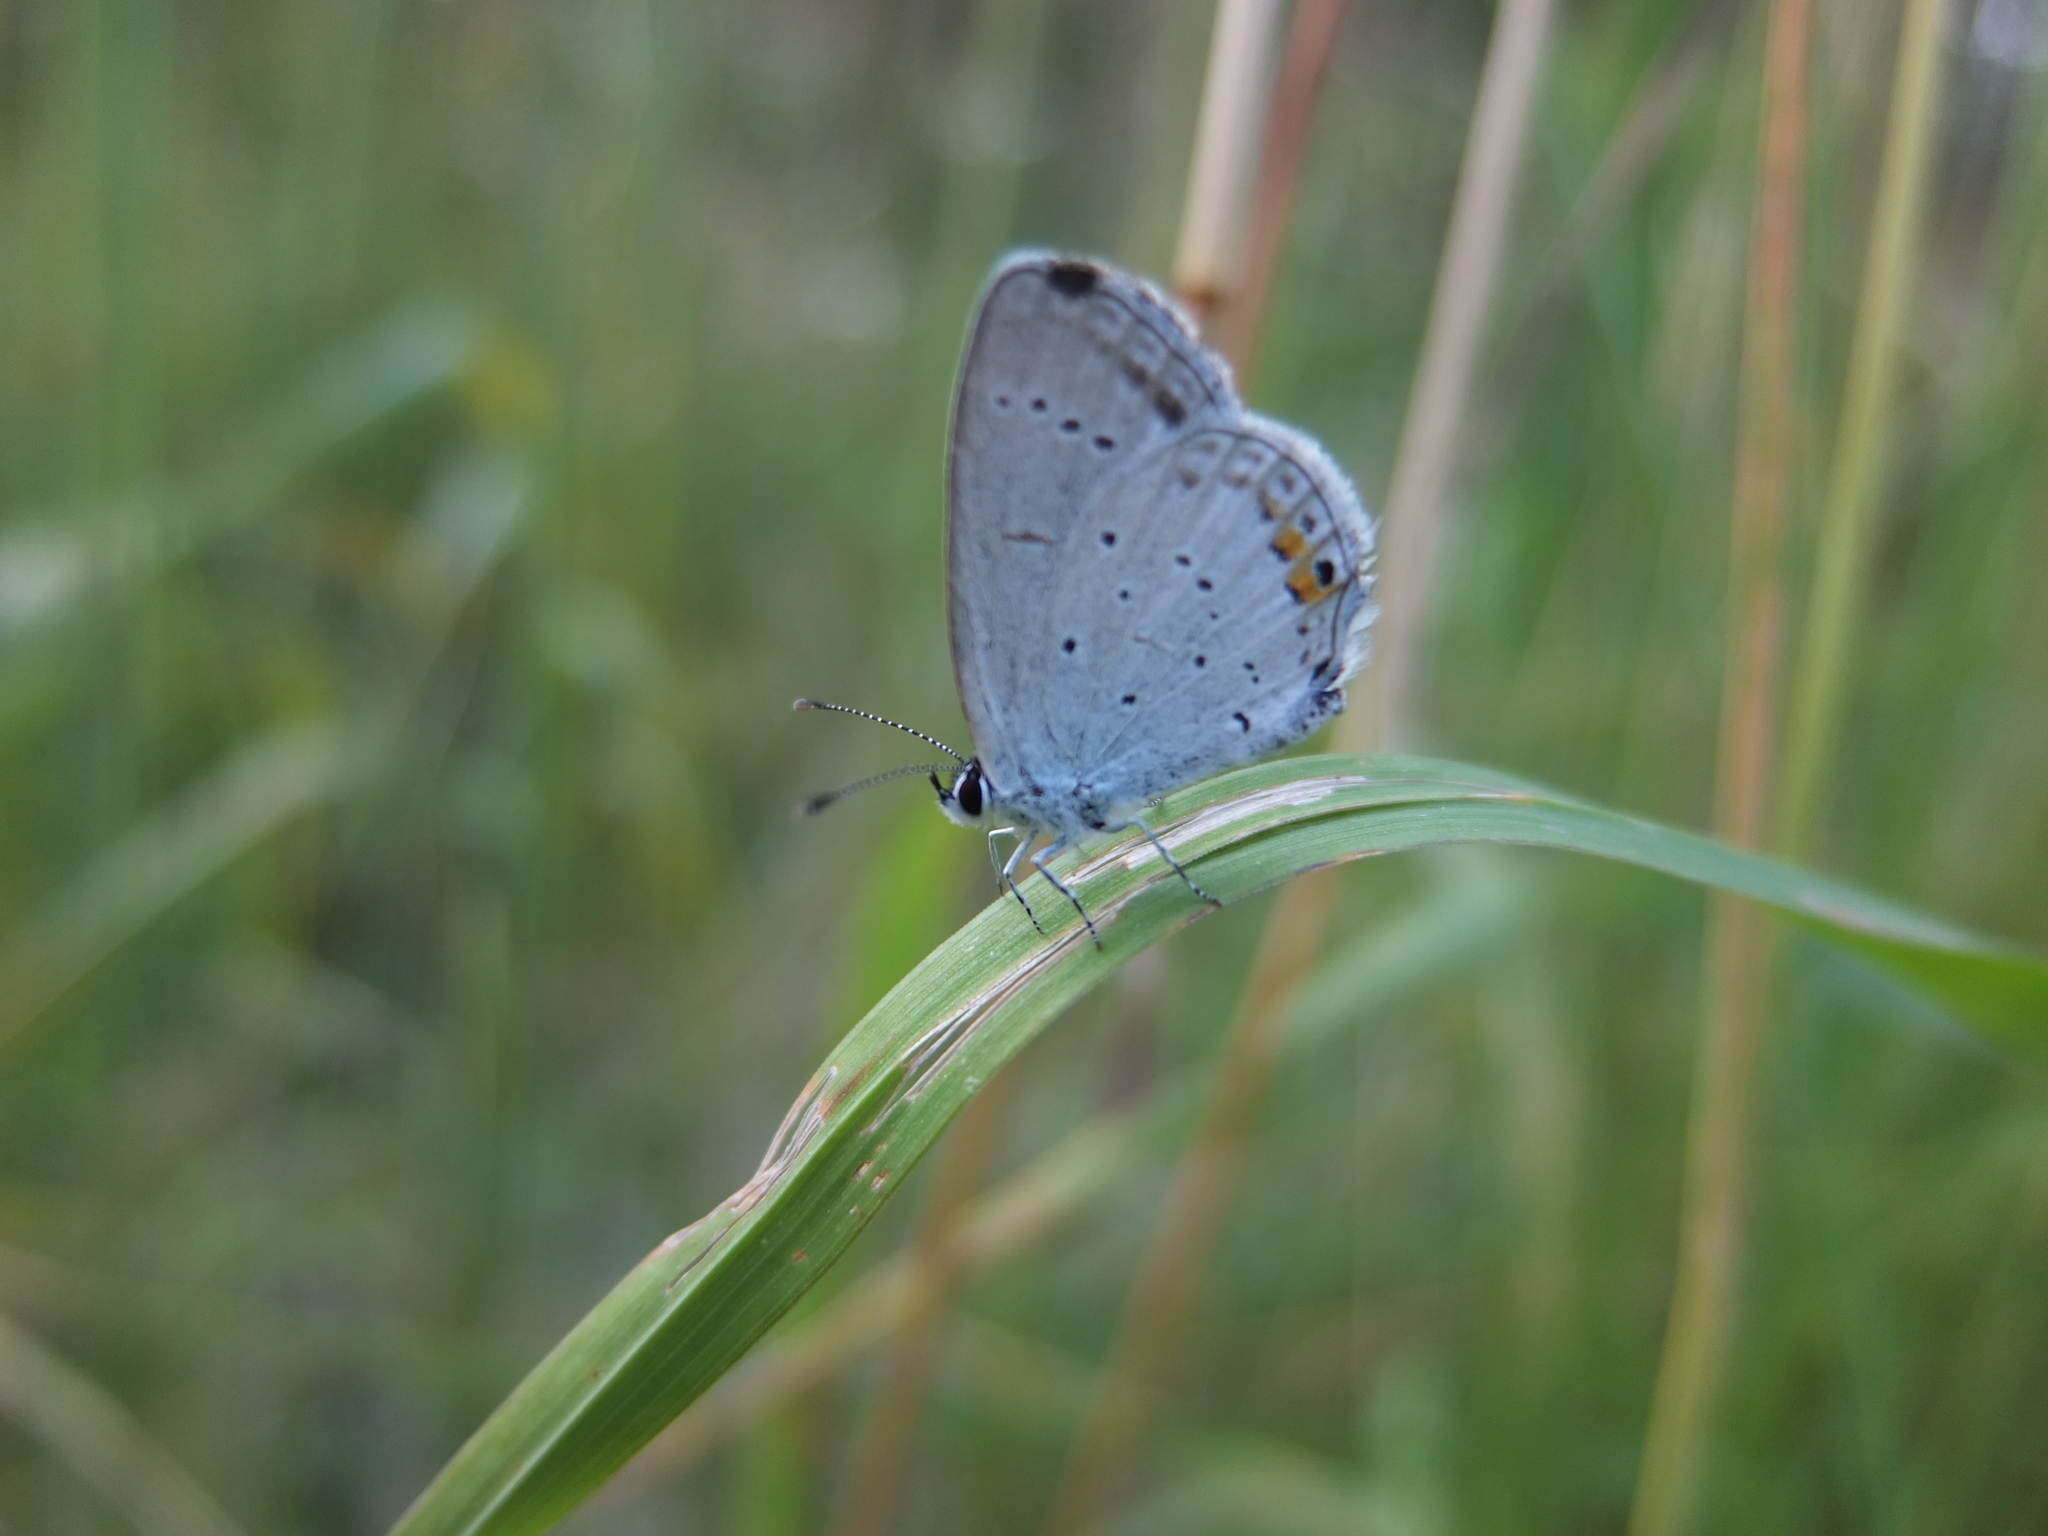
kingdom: Animalia
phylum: Arthropoda
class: Insecta
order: Lepidoptera
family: Lycaenidae
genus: Elkalyce
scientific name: Elkalyce argiades
